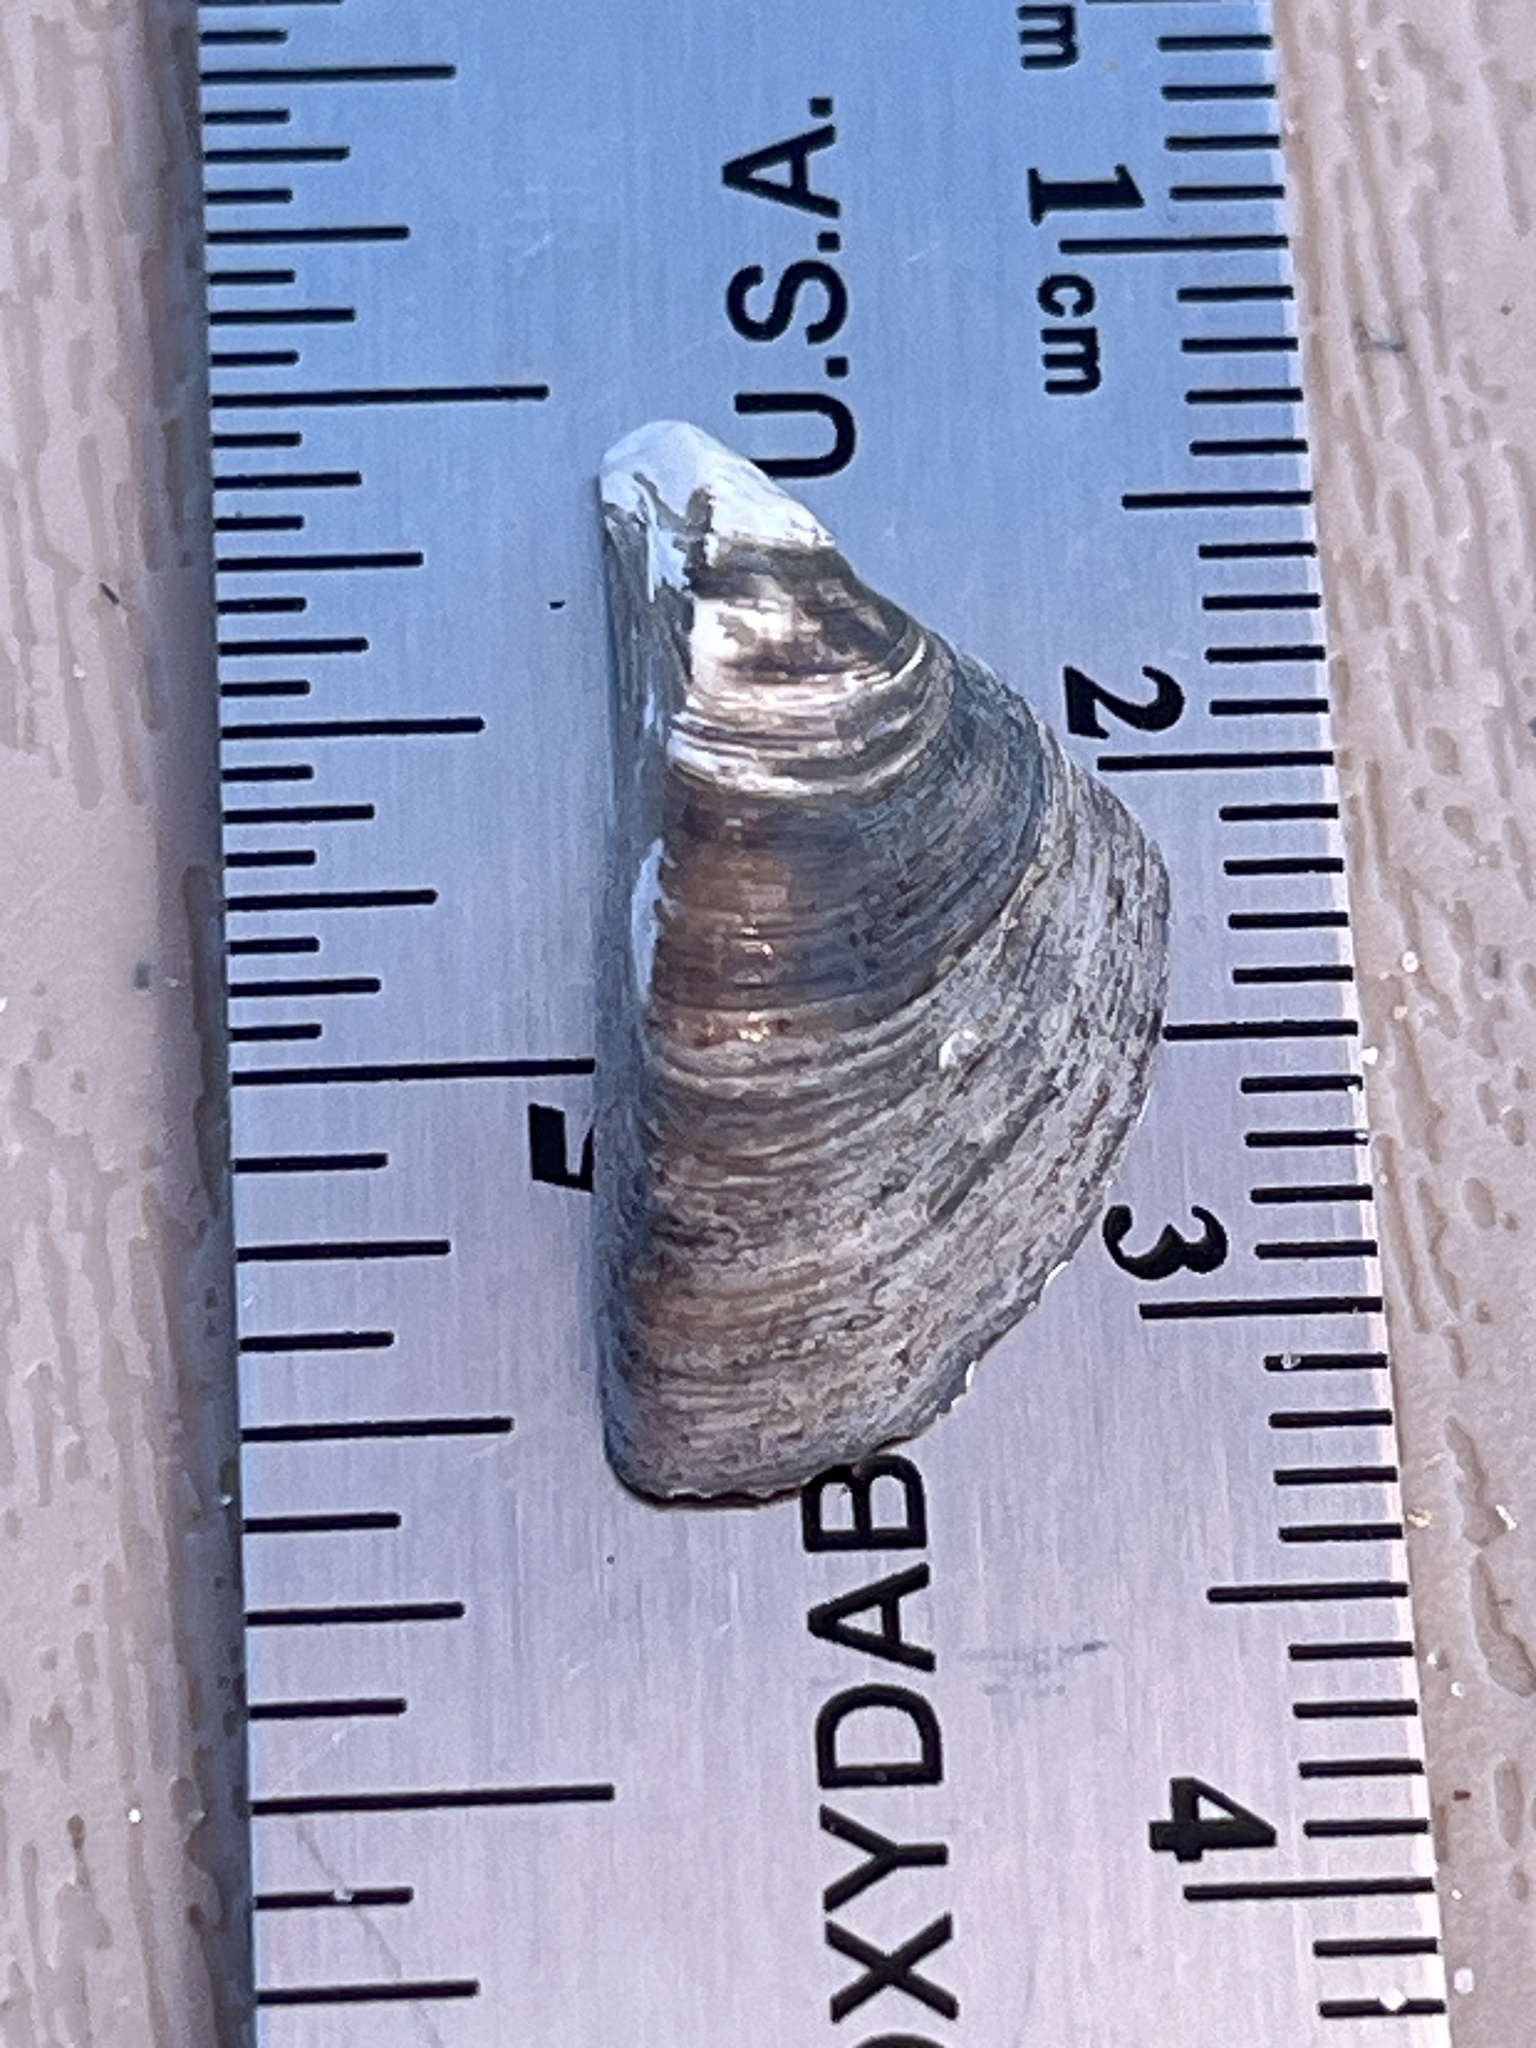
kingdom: Animalia
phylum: Mollusca
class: Bivalvia
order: Myida
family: Dreissenidae
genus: Dreissena
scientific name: Dreissena polymorpha
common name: Zebra mussel
